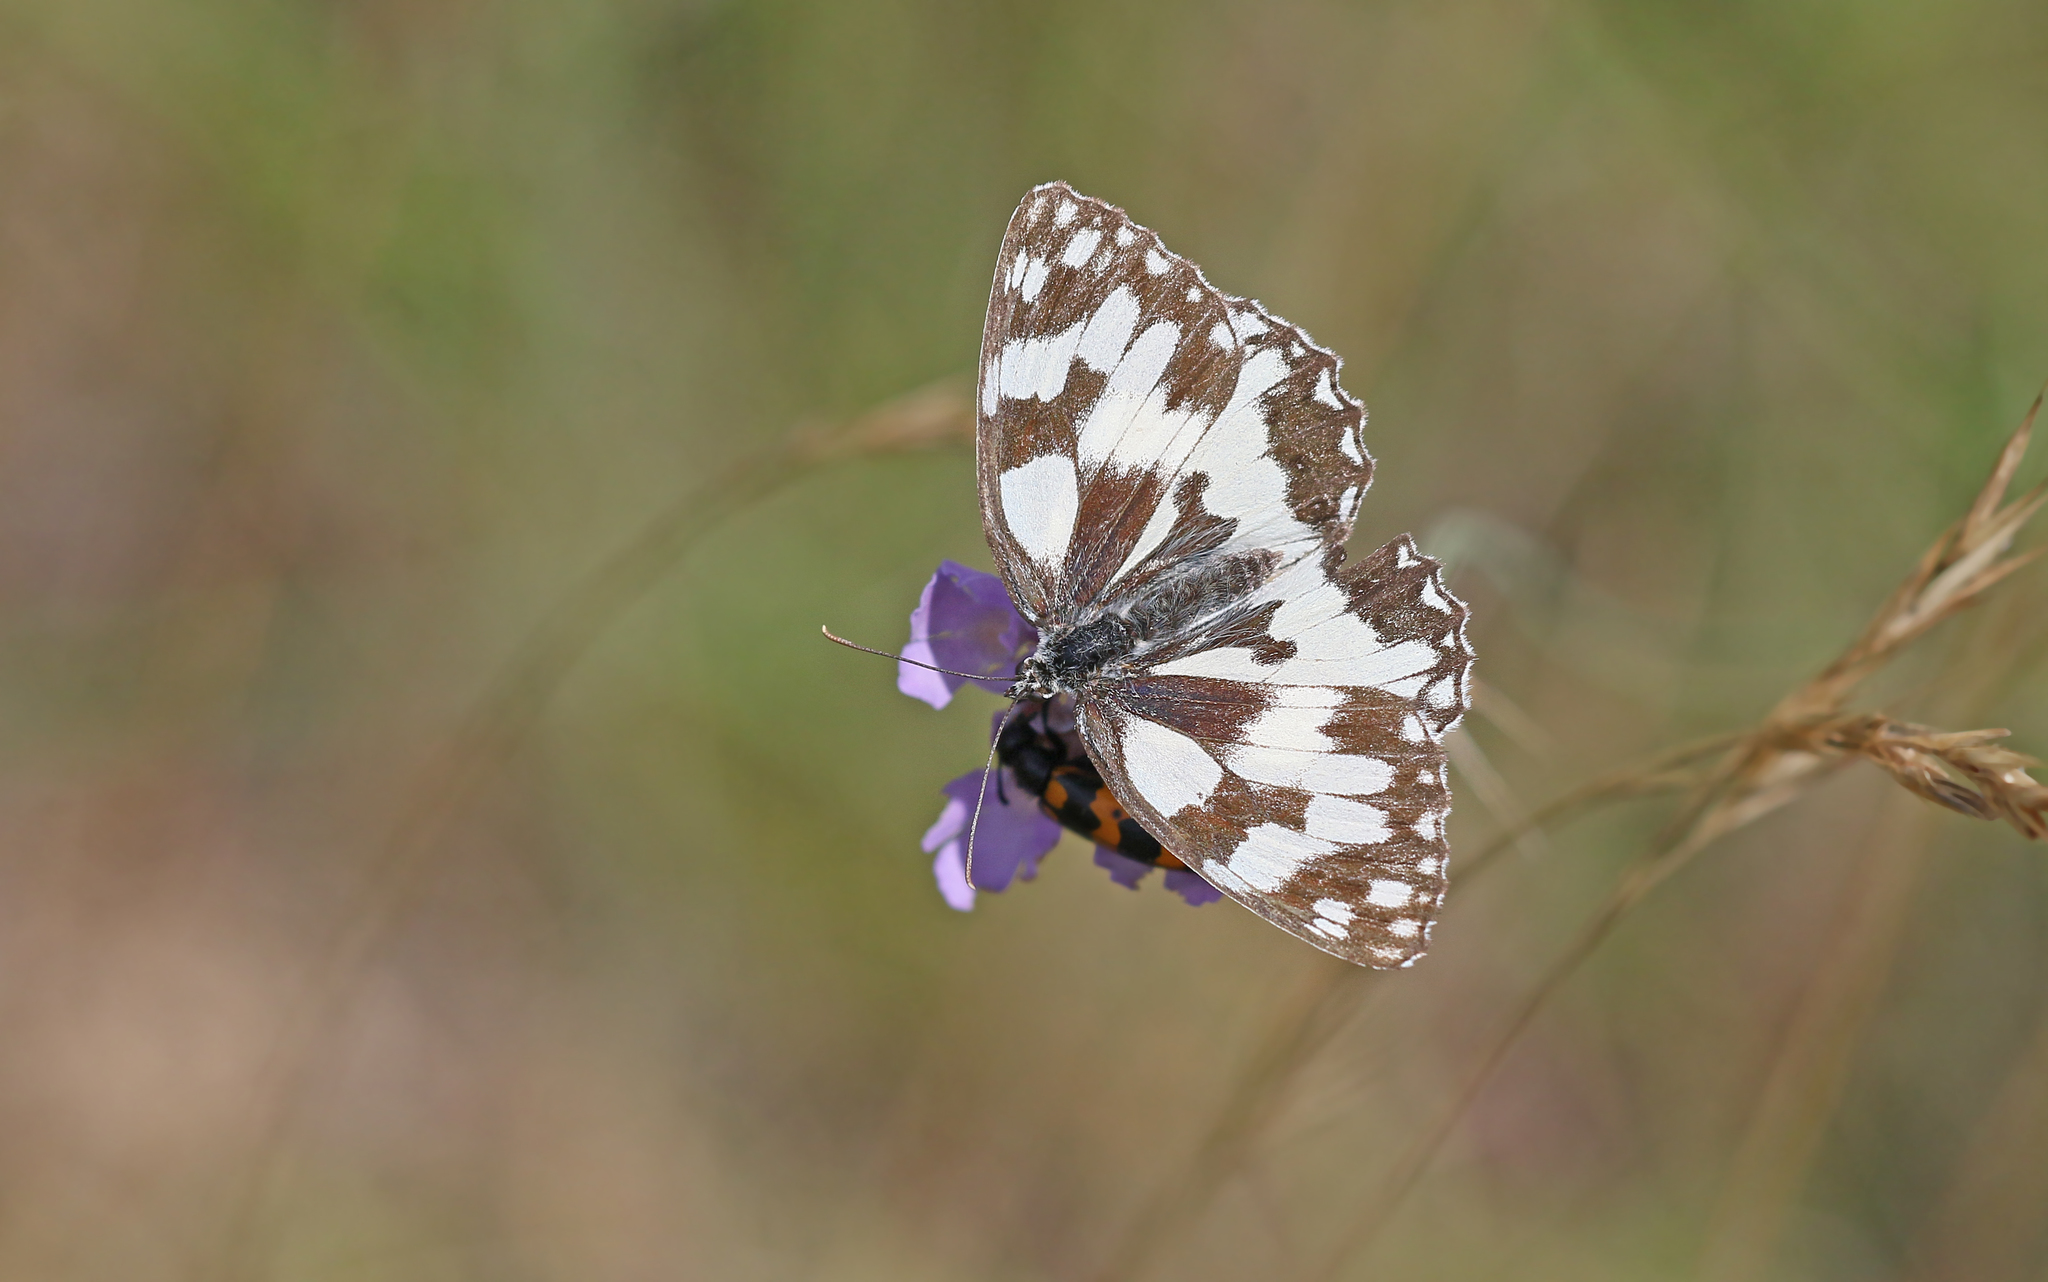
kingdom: Animalia
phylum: Arthropoda
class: Insecta
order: Lepidoptera
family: Nymphalidae
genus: Melanargia
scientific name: Melanargia galathea
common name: Marbled white
